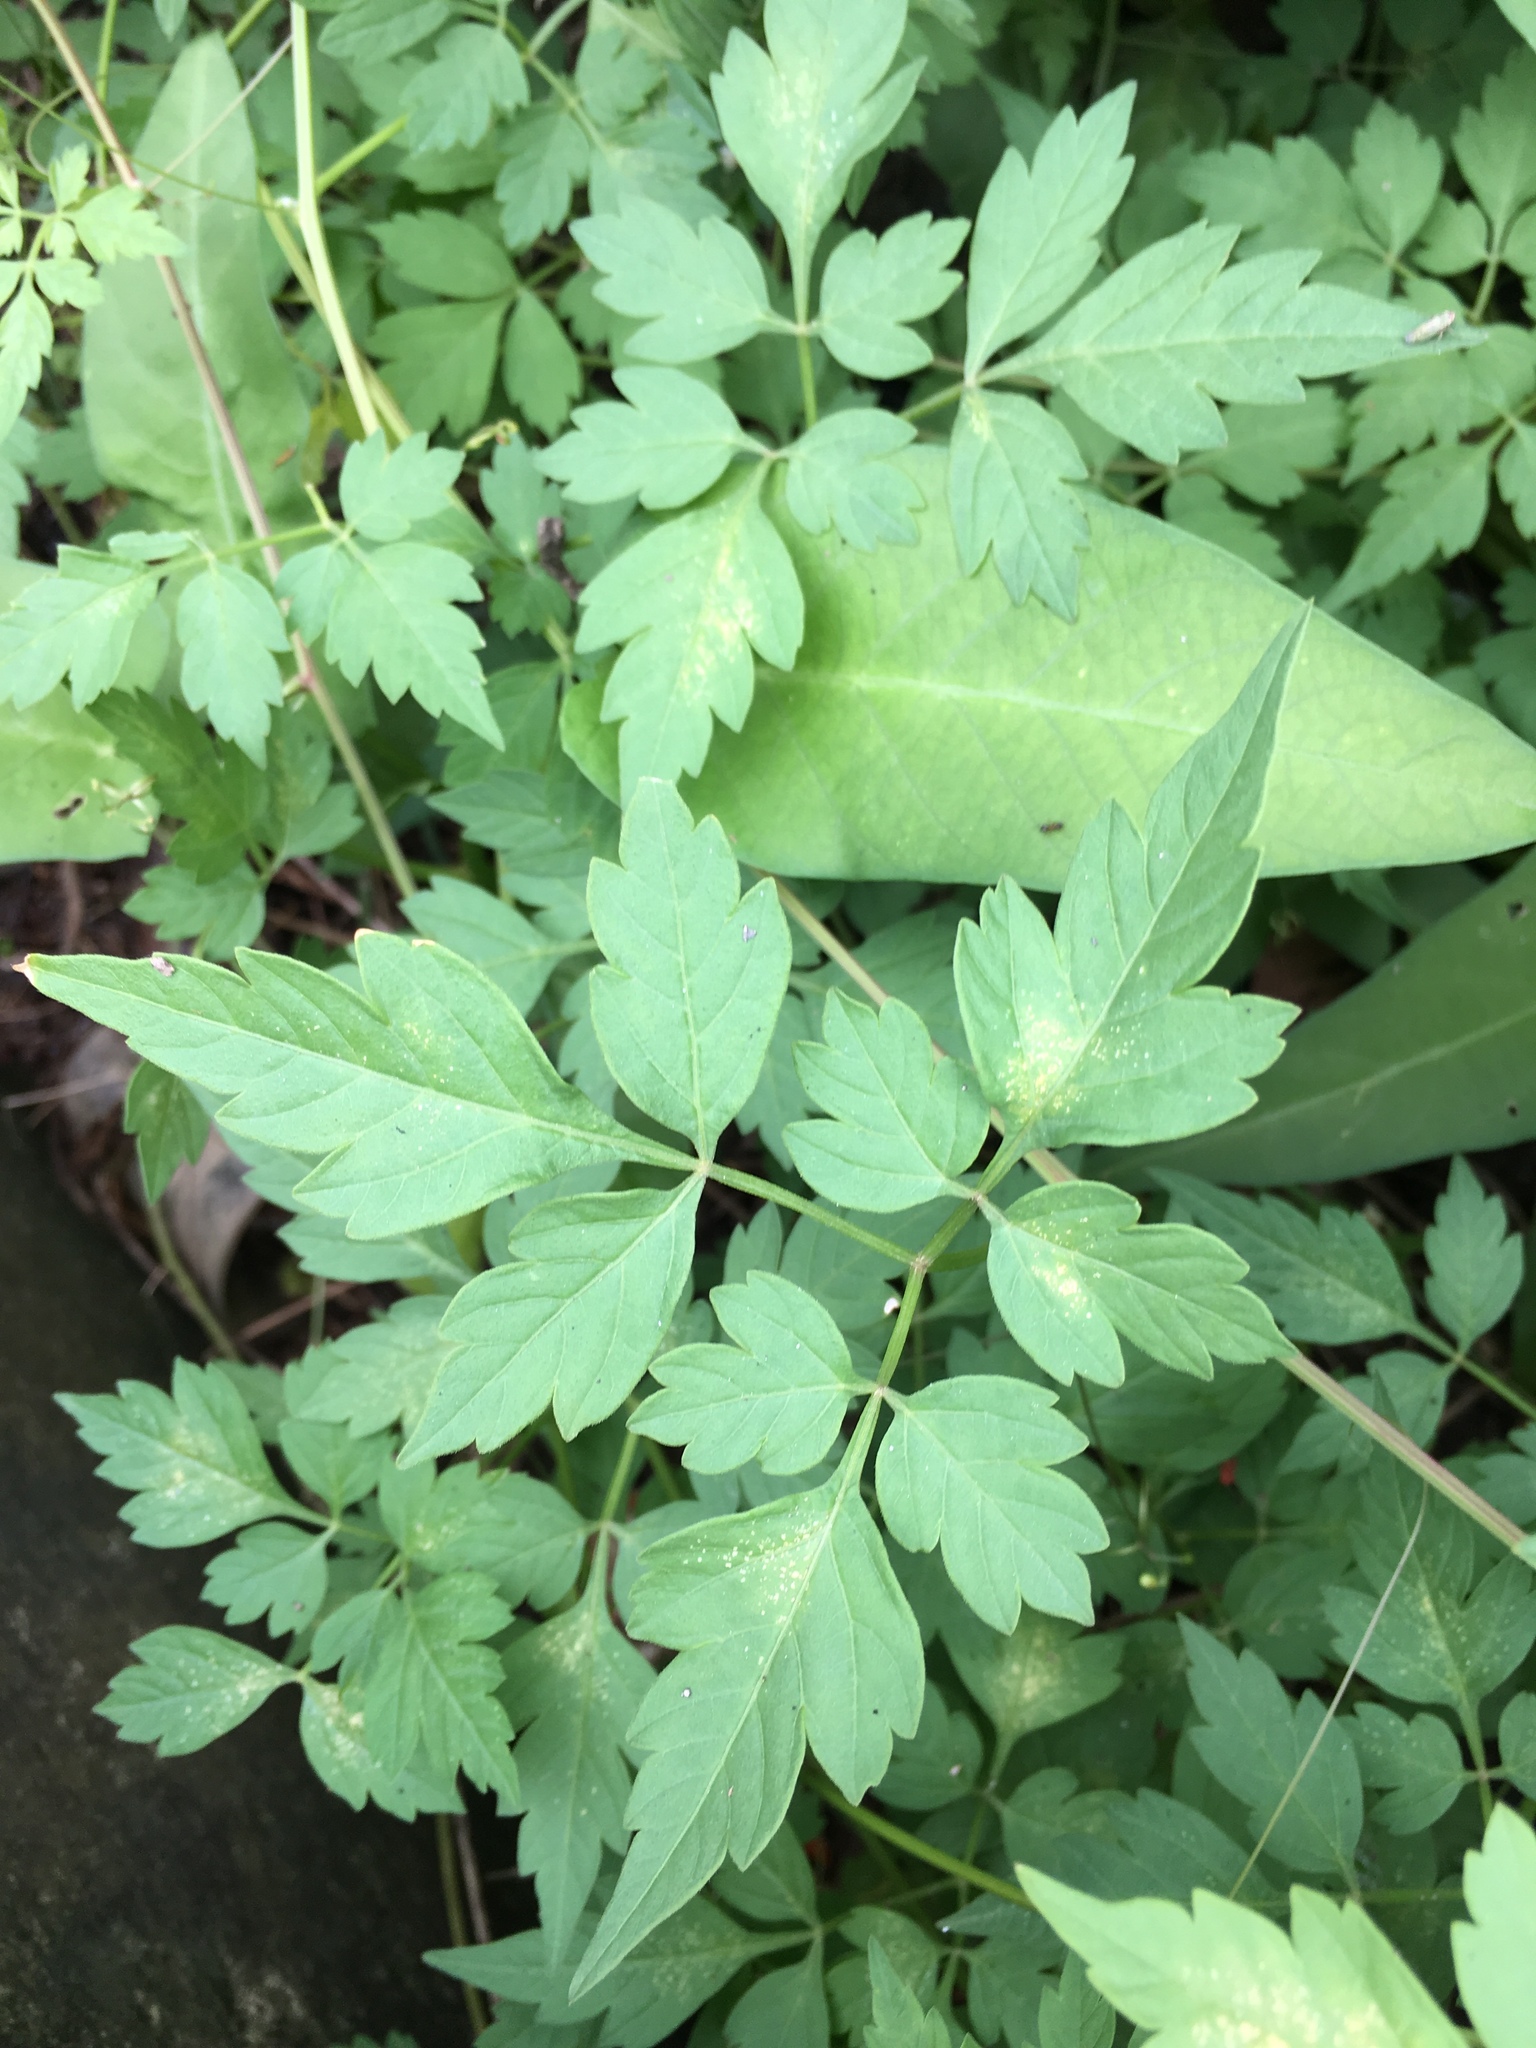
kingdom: Plantae
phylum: Tracheophyta
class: Magnoliopsida
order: Sapindales
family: Sapindaceae
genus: Cardiospermum
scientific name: Cardiospermum halicacabum
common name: Balloon vine
